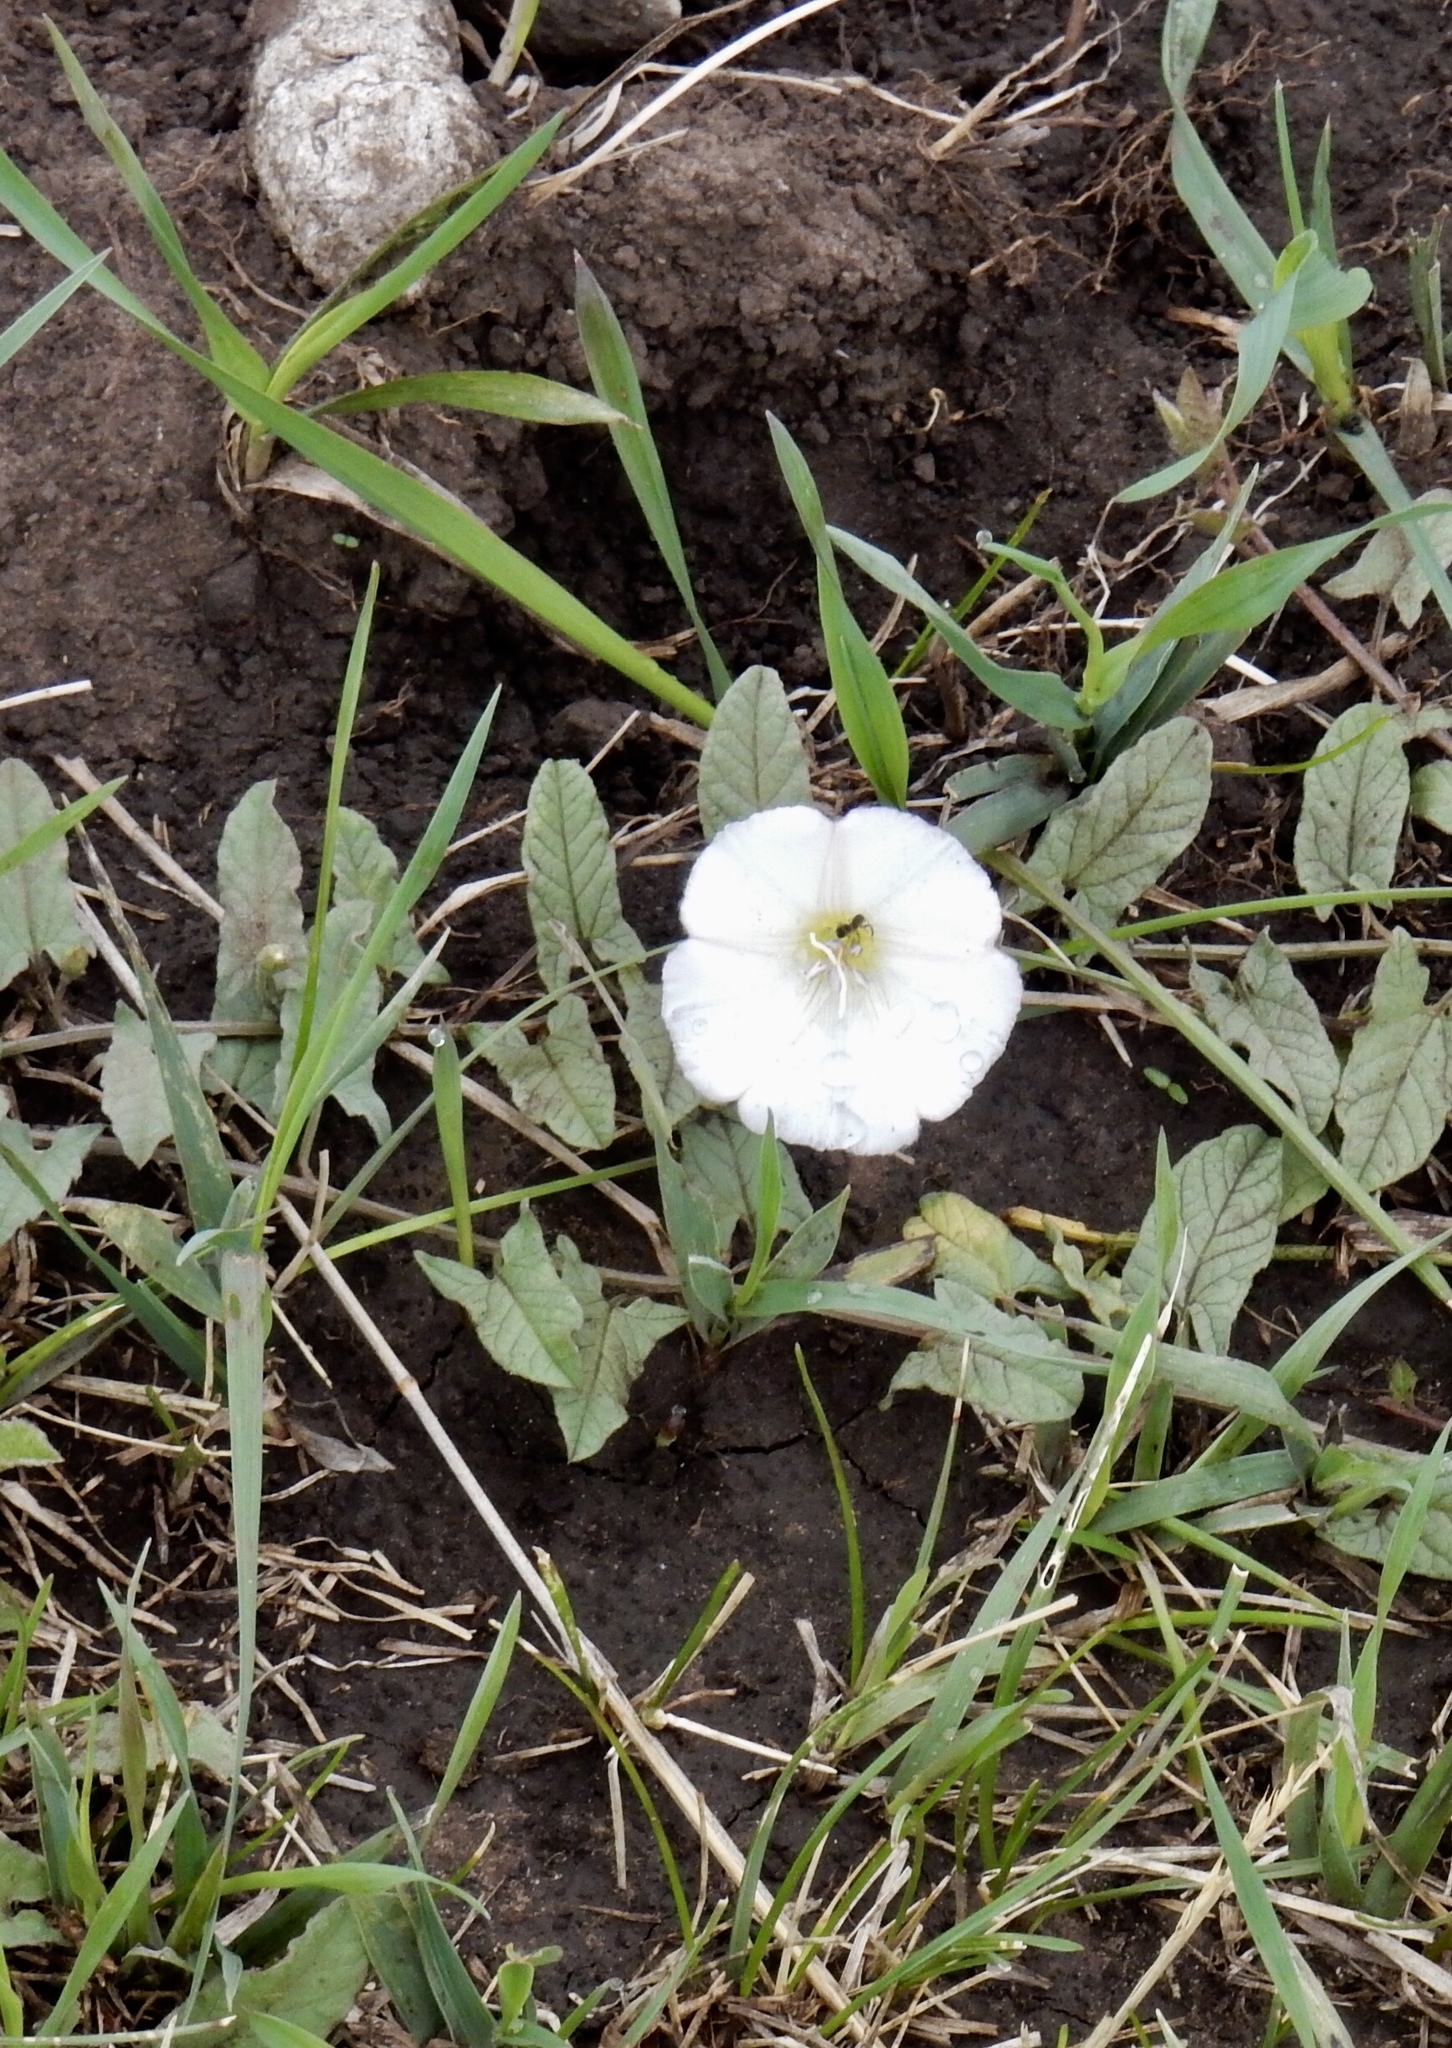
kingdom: Plantae
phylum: Tracheophyta
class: Magnoliopsida
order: Solanales
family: Convolvulaceae
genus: Convolvulus
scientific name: Convolvulus arvensis
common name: Field bindweed
